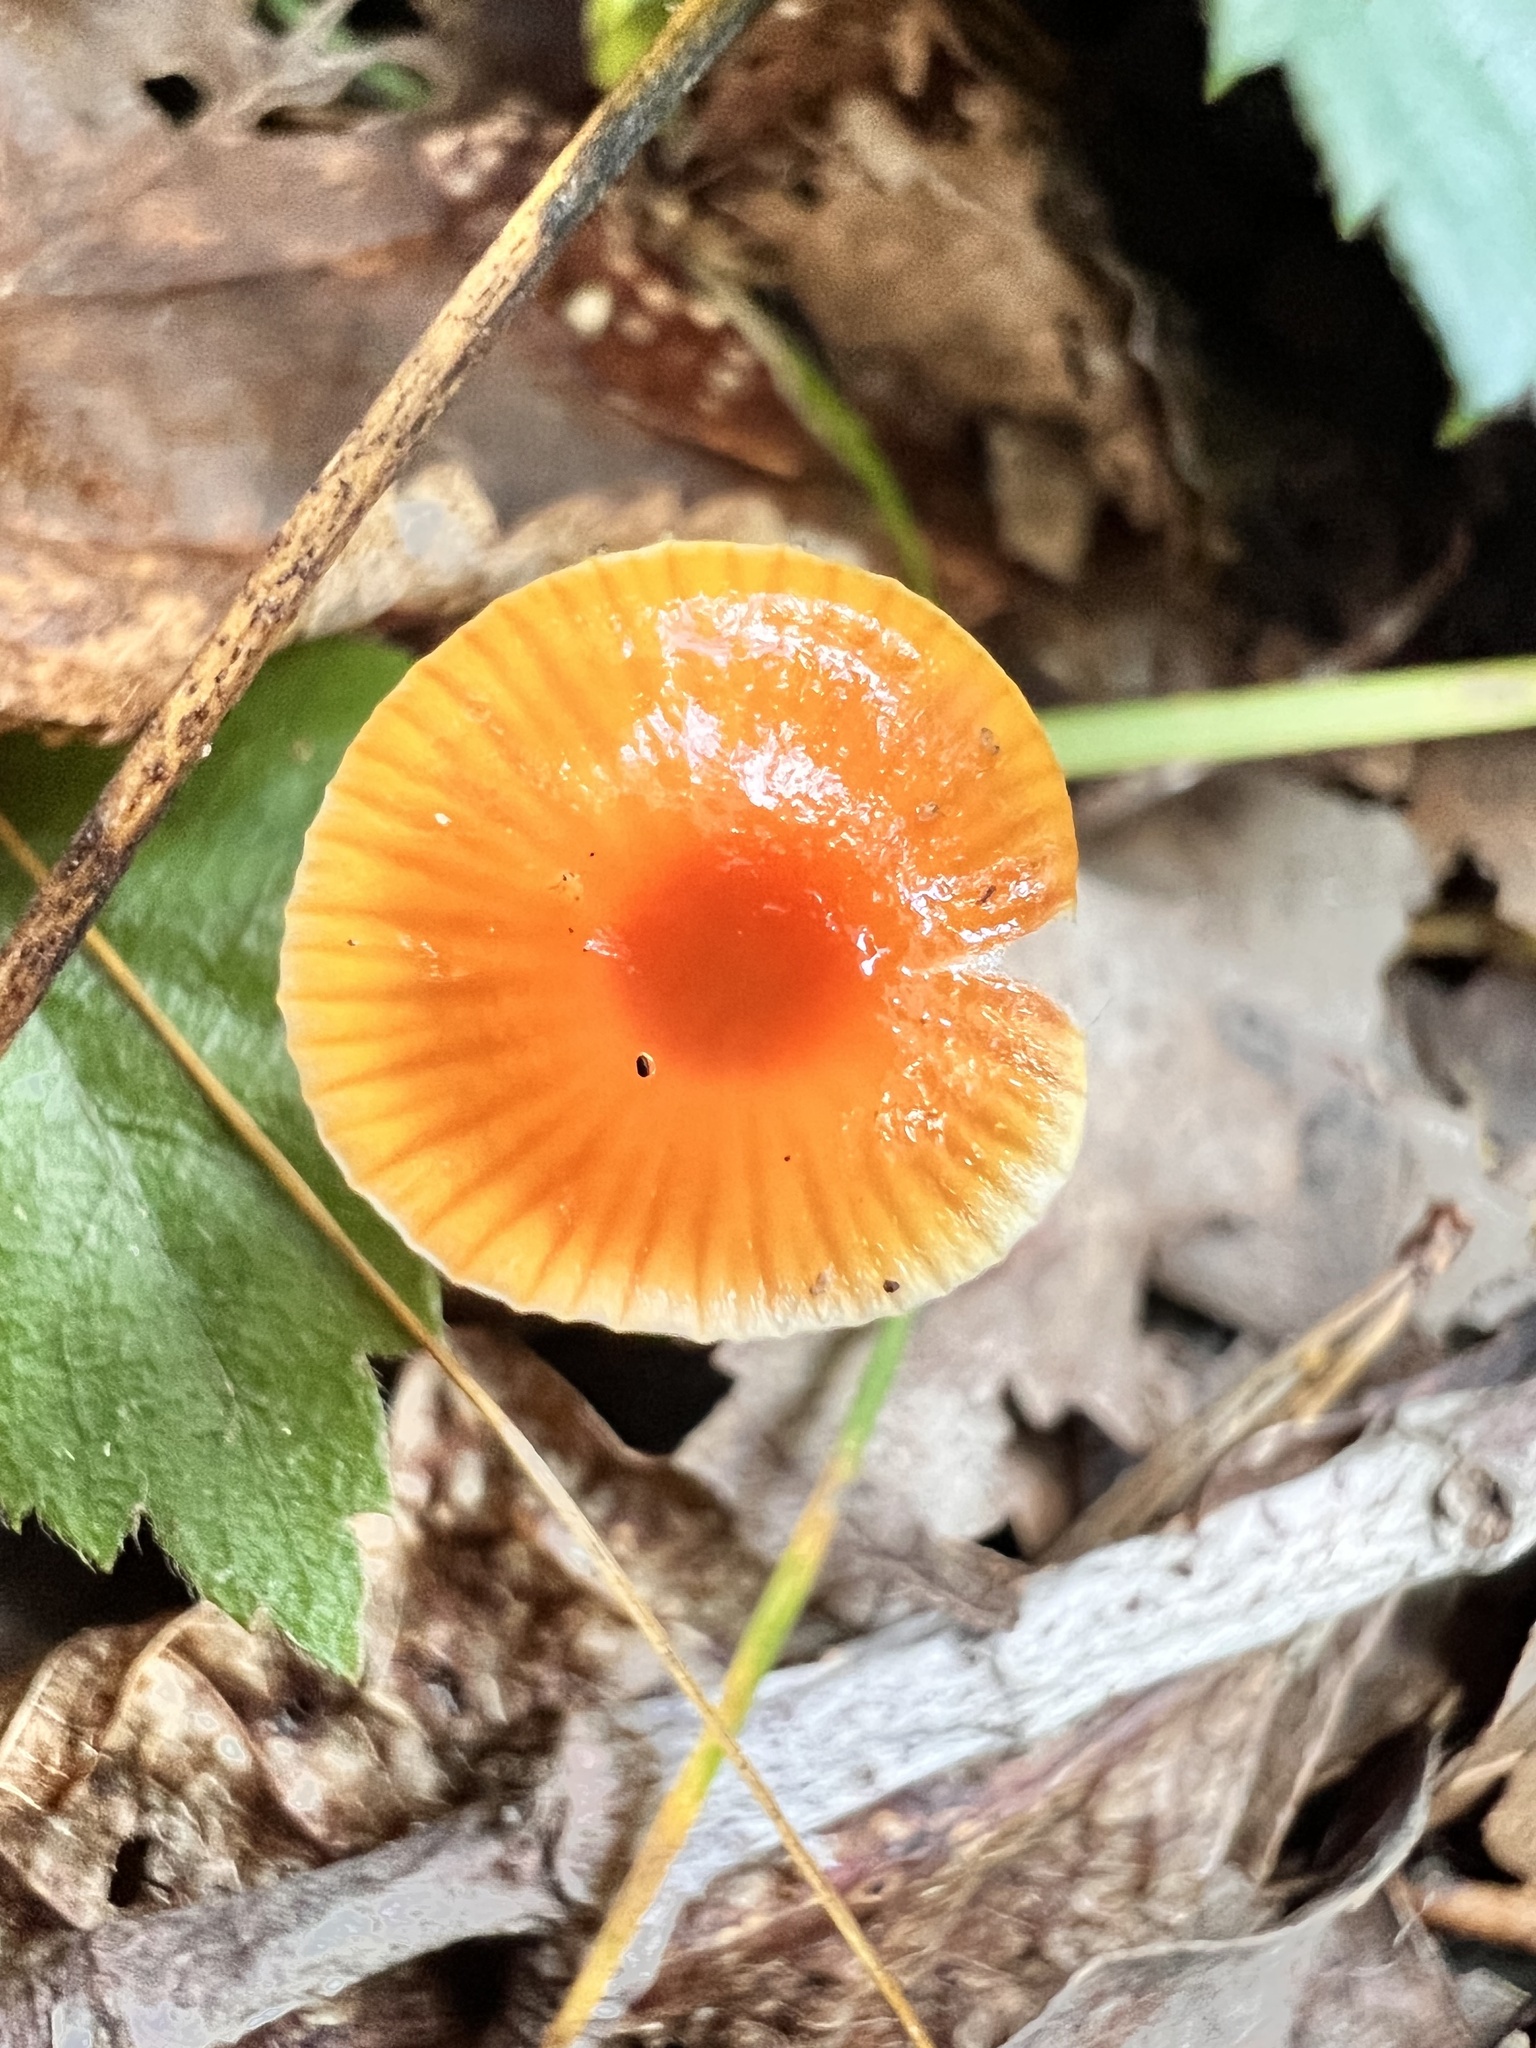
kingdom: Fungi
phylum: Basidiomycota
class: Agaricomycetes
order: Agaricales
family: Hygrophoraceae
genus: Gliophorus
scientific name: Gliophorus psittacinus
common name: Parrot wax-cap
